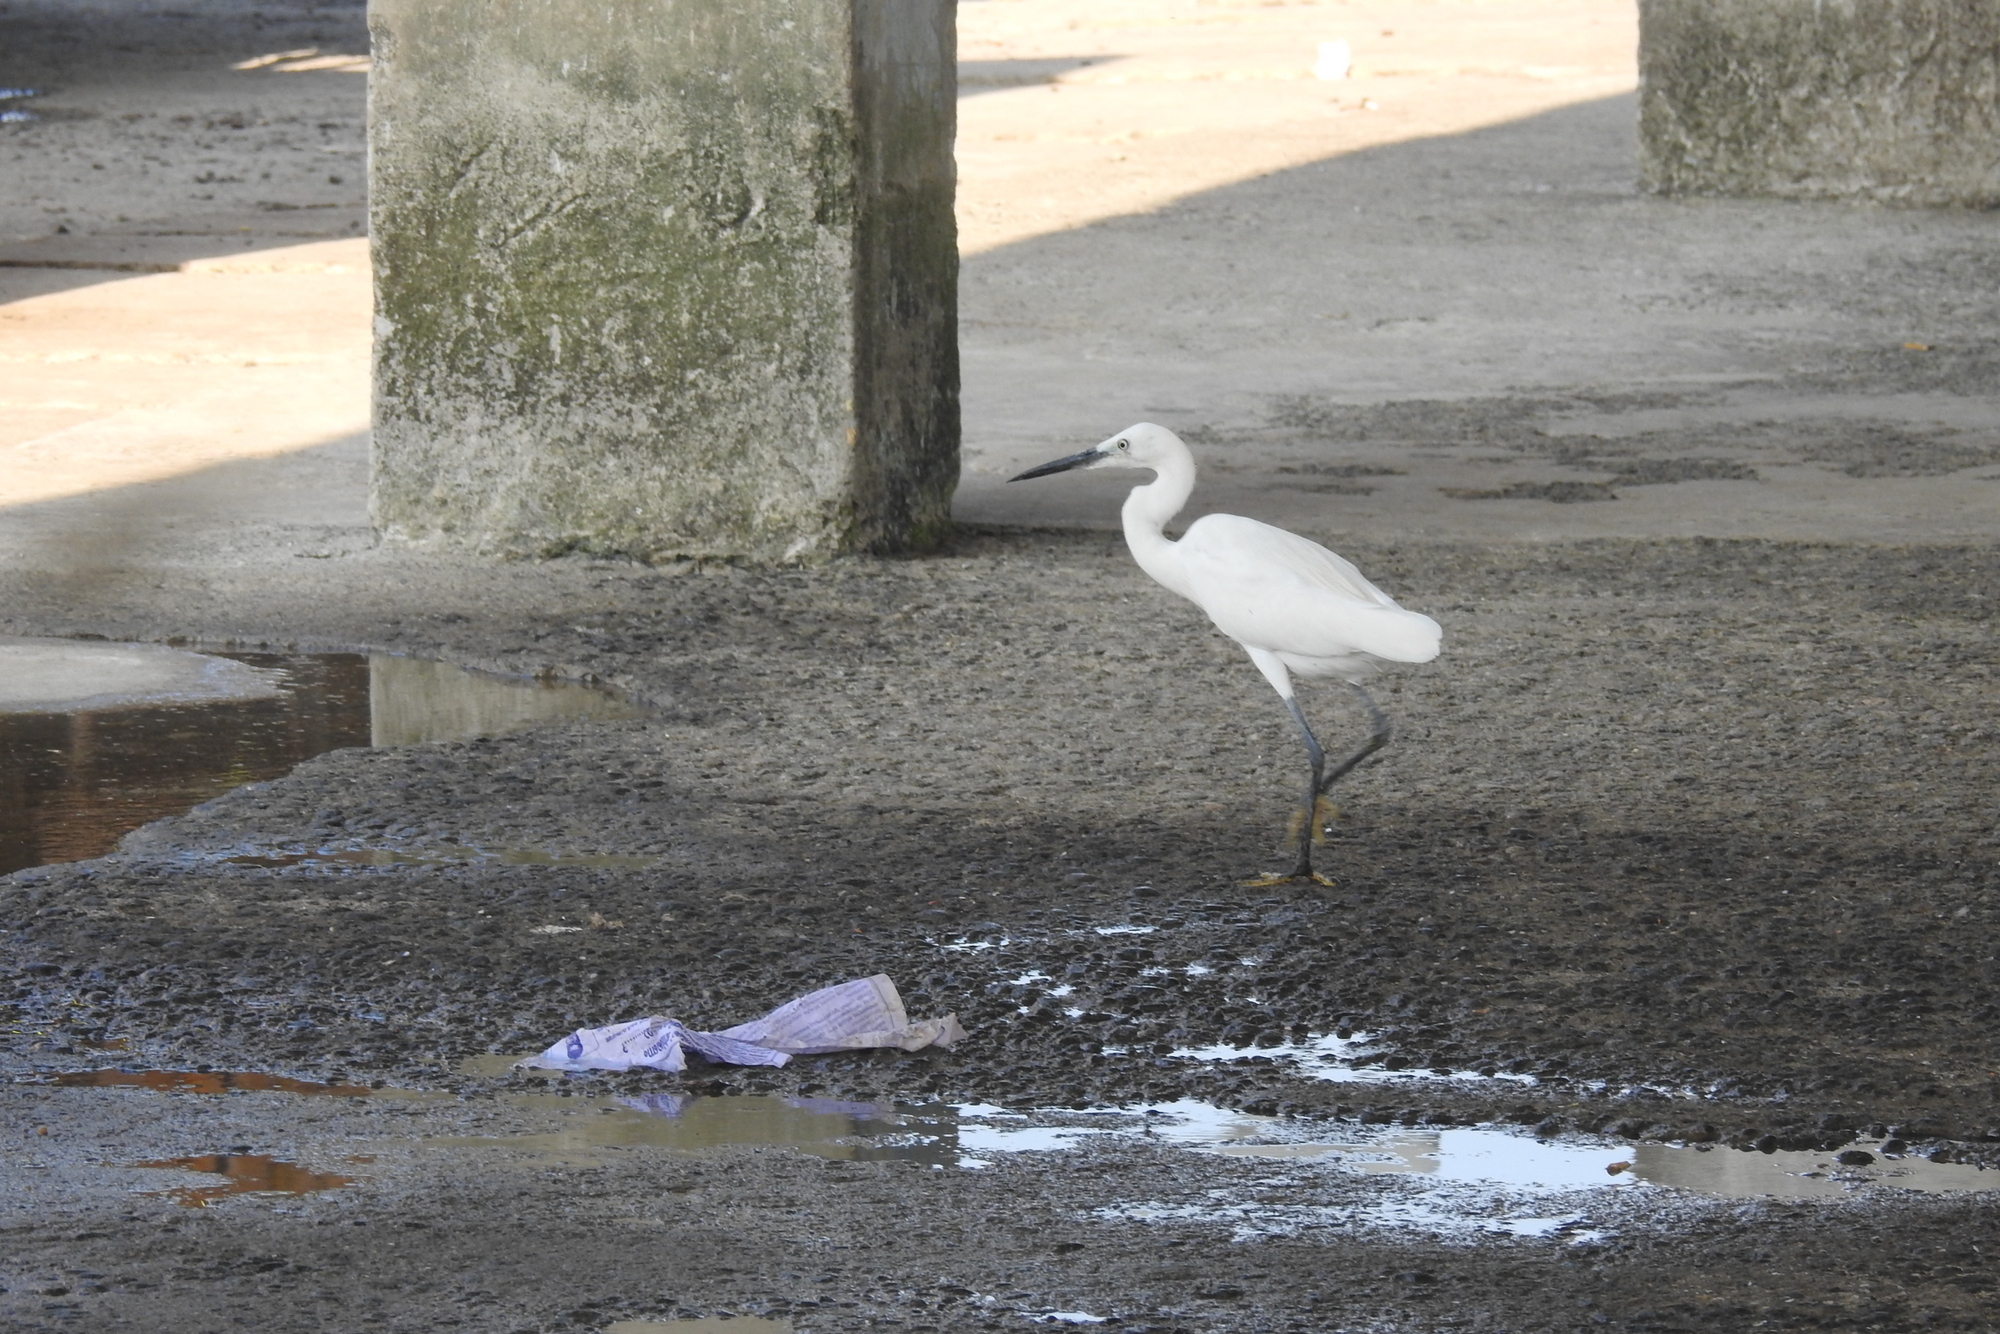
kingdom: Animalia
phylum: Chordata
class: Aves
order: Pelecaniformes
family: Ardeidae
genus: Egretta
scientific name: Egretta garzetta
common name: Little egret
